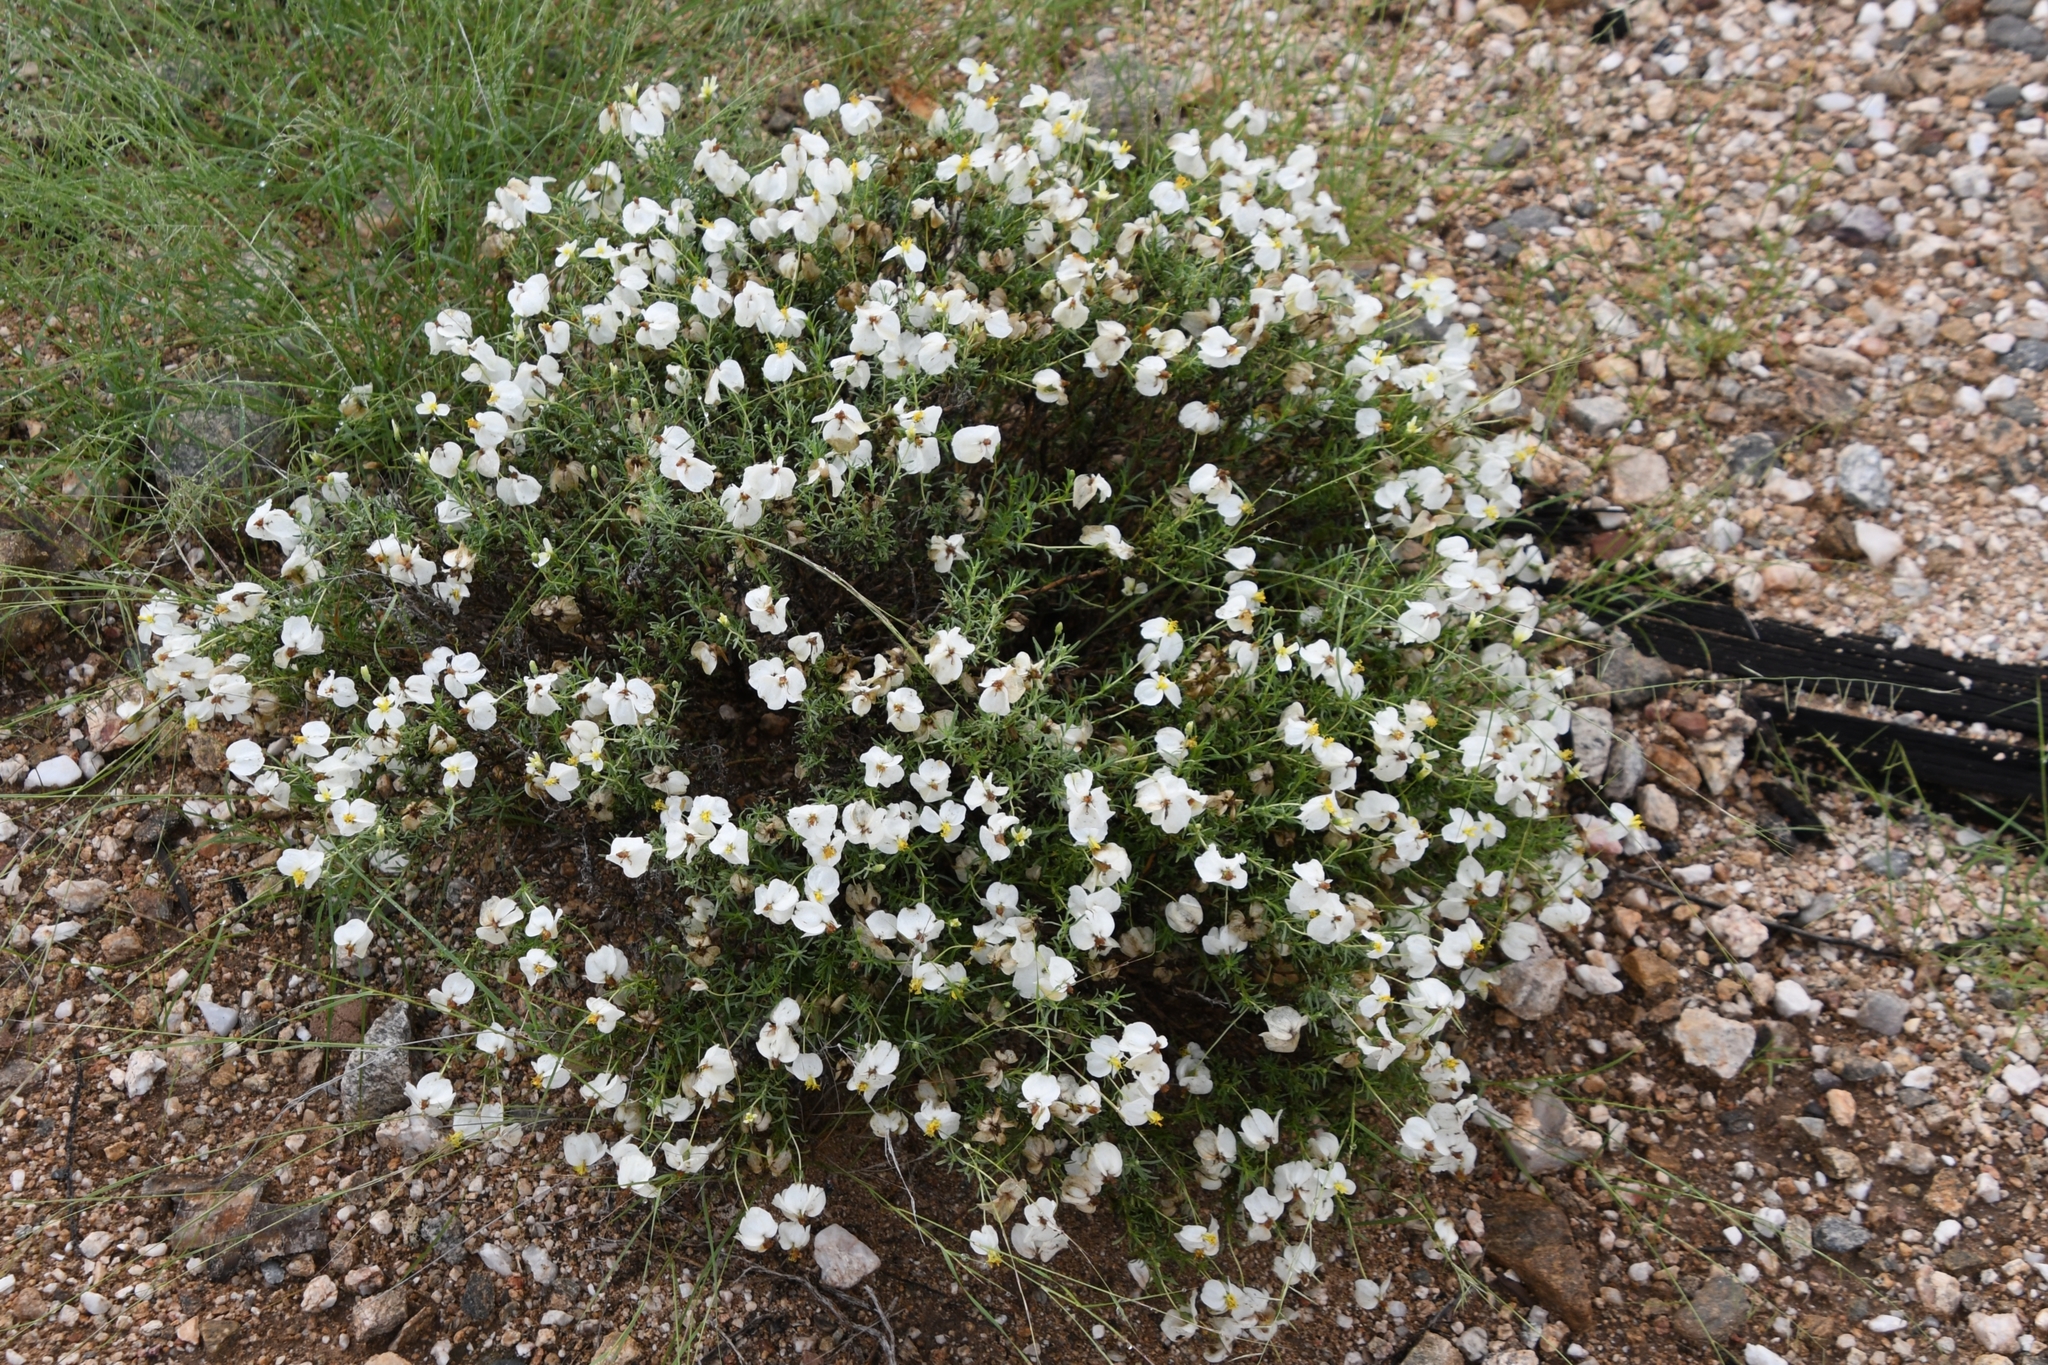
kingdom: Plantae
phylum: Tracheophyta
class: Magnoliopsida
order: Asterales
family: Asteraceae
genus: Zinnia
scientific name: Zinnia acerosa
